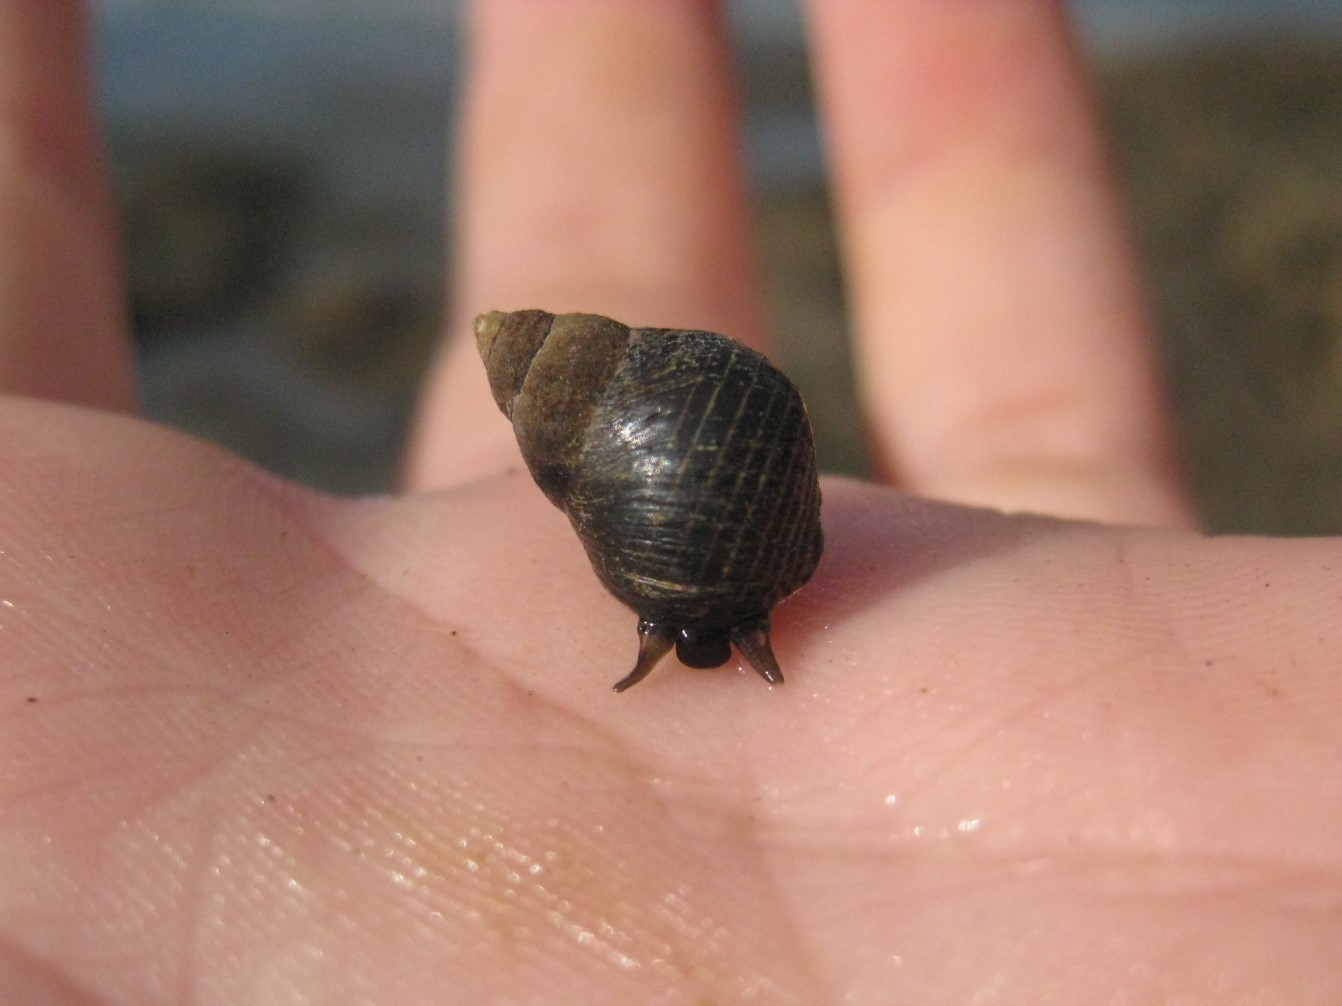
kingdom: Animalia
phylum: Mollusca
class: Gastropoda
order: Littorinimorpha
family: Littorinidae
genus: Austrolittorina
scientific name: Austrolittorina cincta
